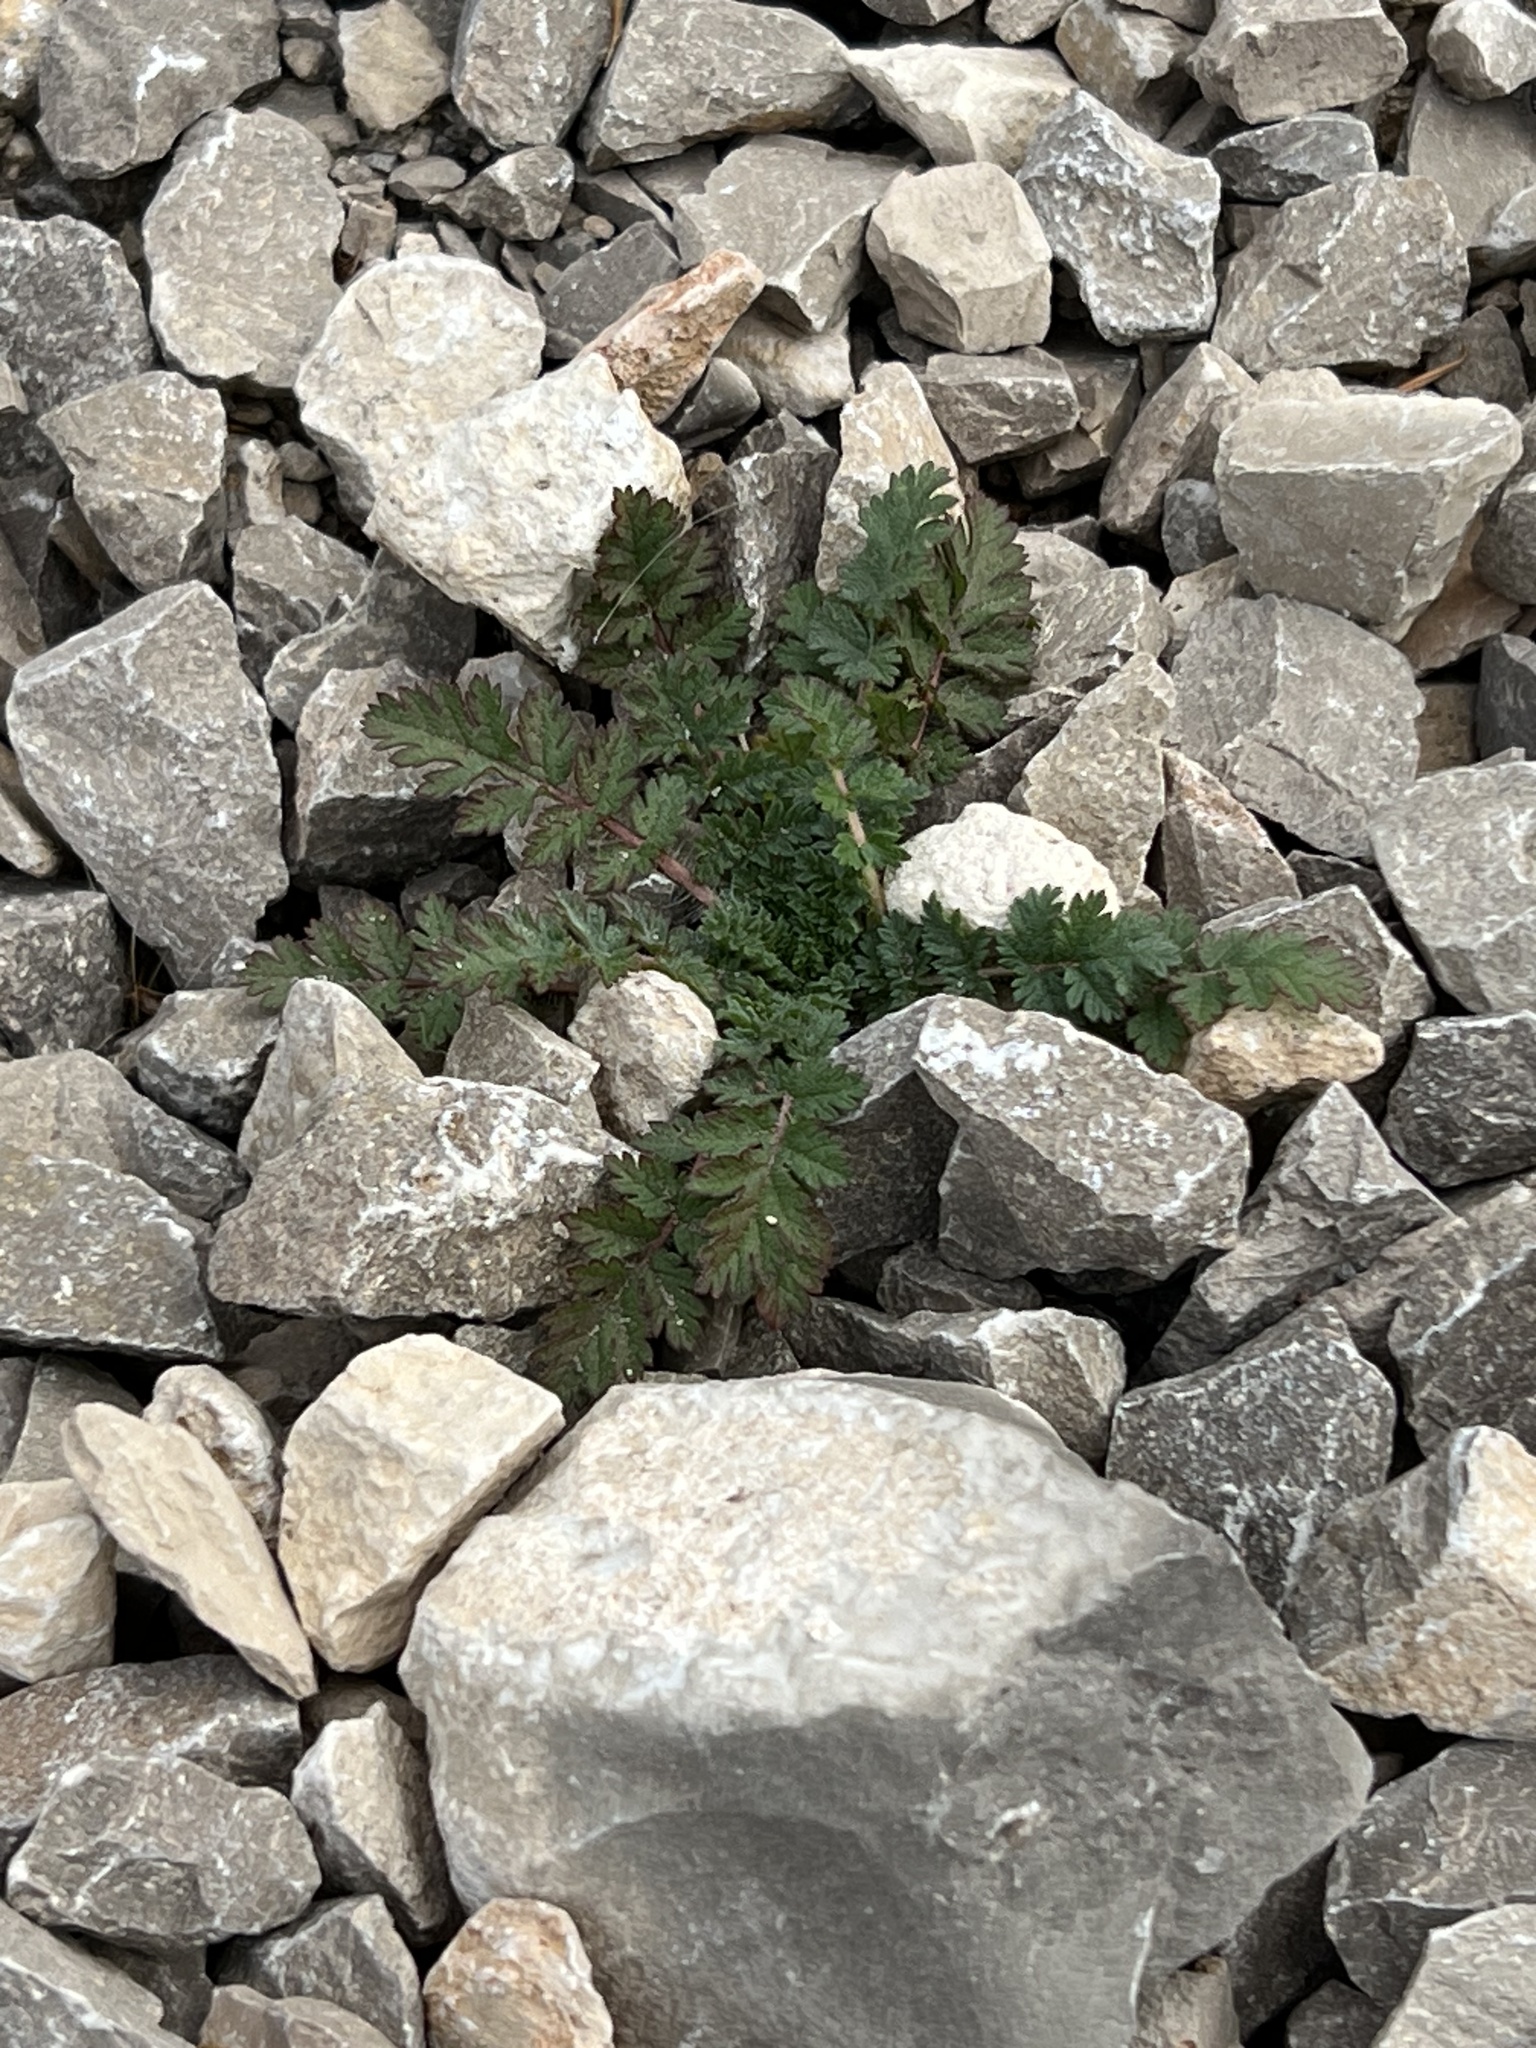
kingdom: Plantae
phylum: Tracheophyta
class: Magnoliopsida
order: Geraniales
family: Geraniaceae
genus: Erodium
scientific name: Erodium cicutarium
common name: Common stork's-bill
